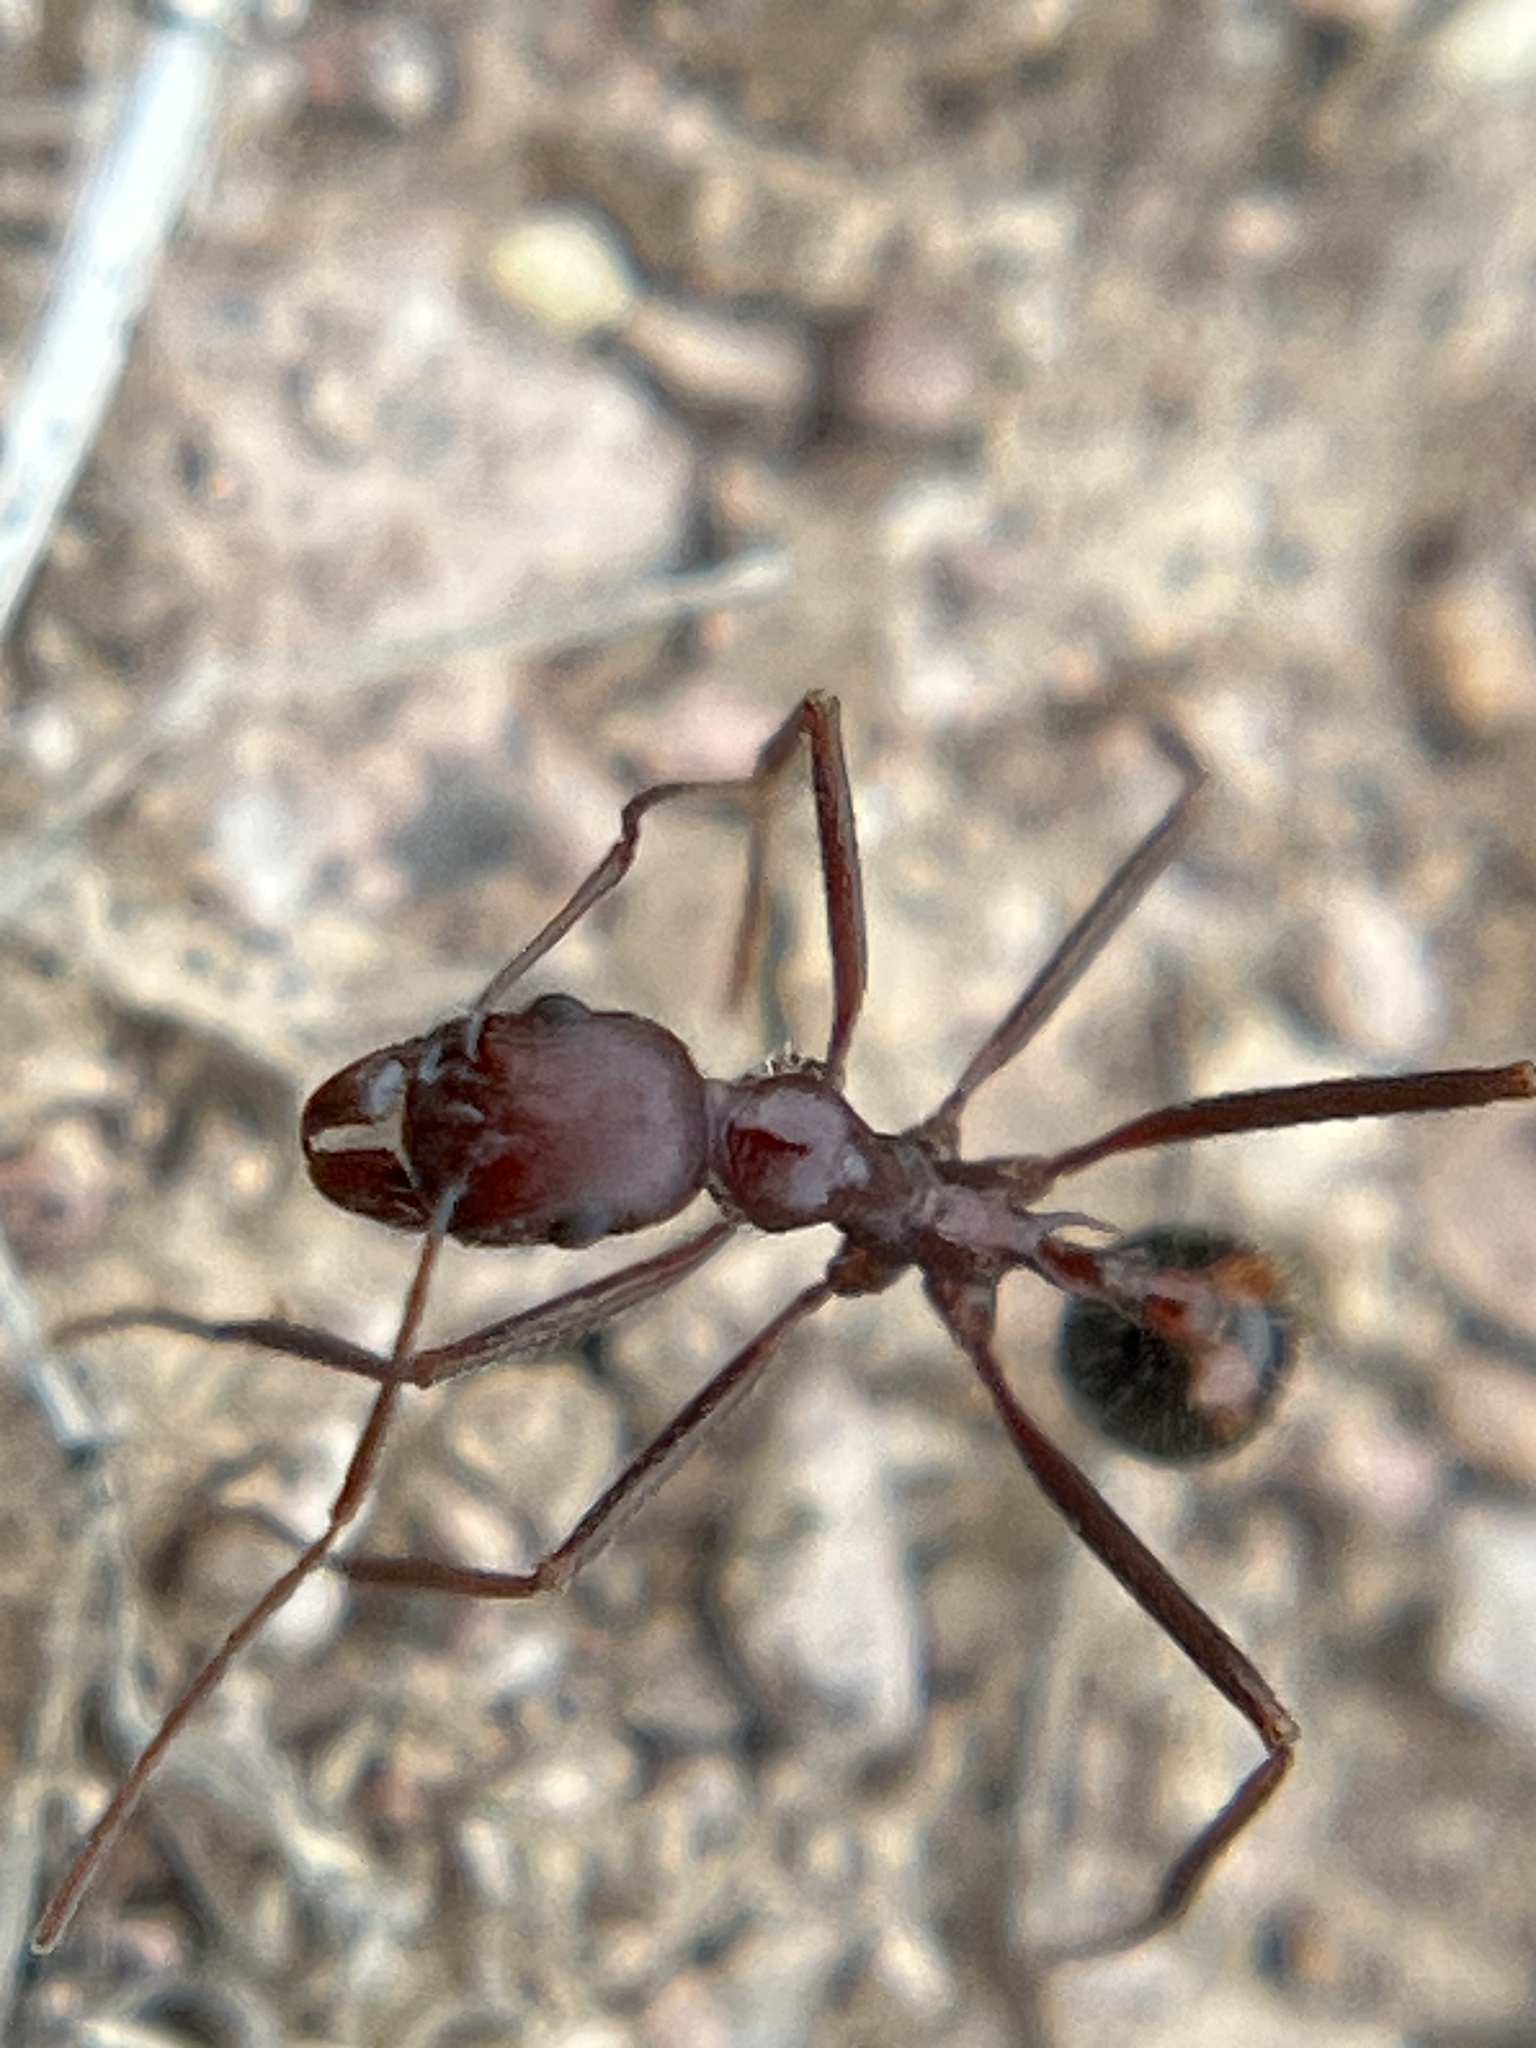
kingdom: Animalia
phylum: Arthropoda
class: Insecta
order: Hymenoptera
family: Formicidae
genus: Novomessor
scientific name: Novomessor cockerelli
